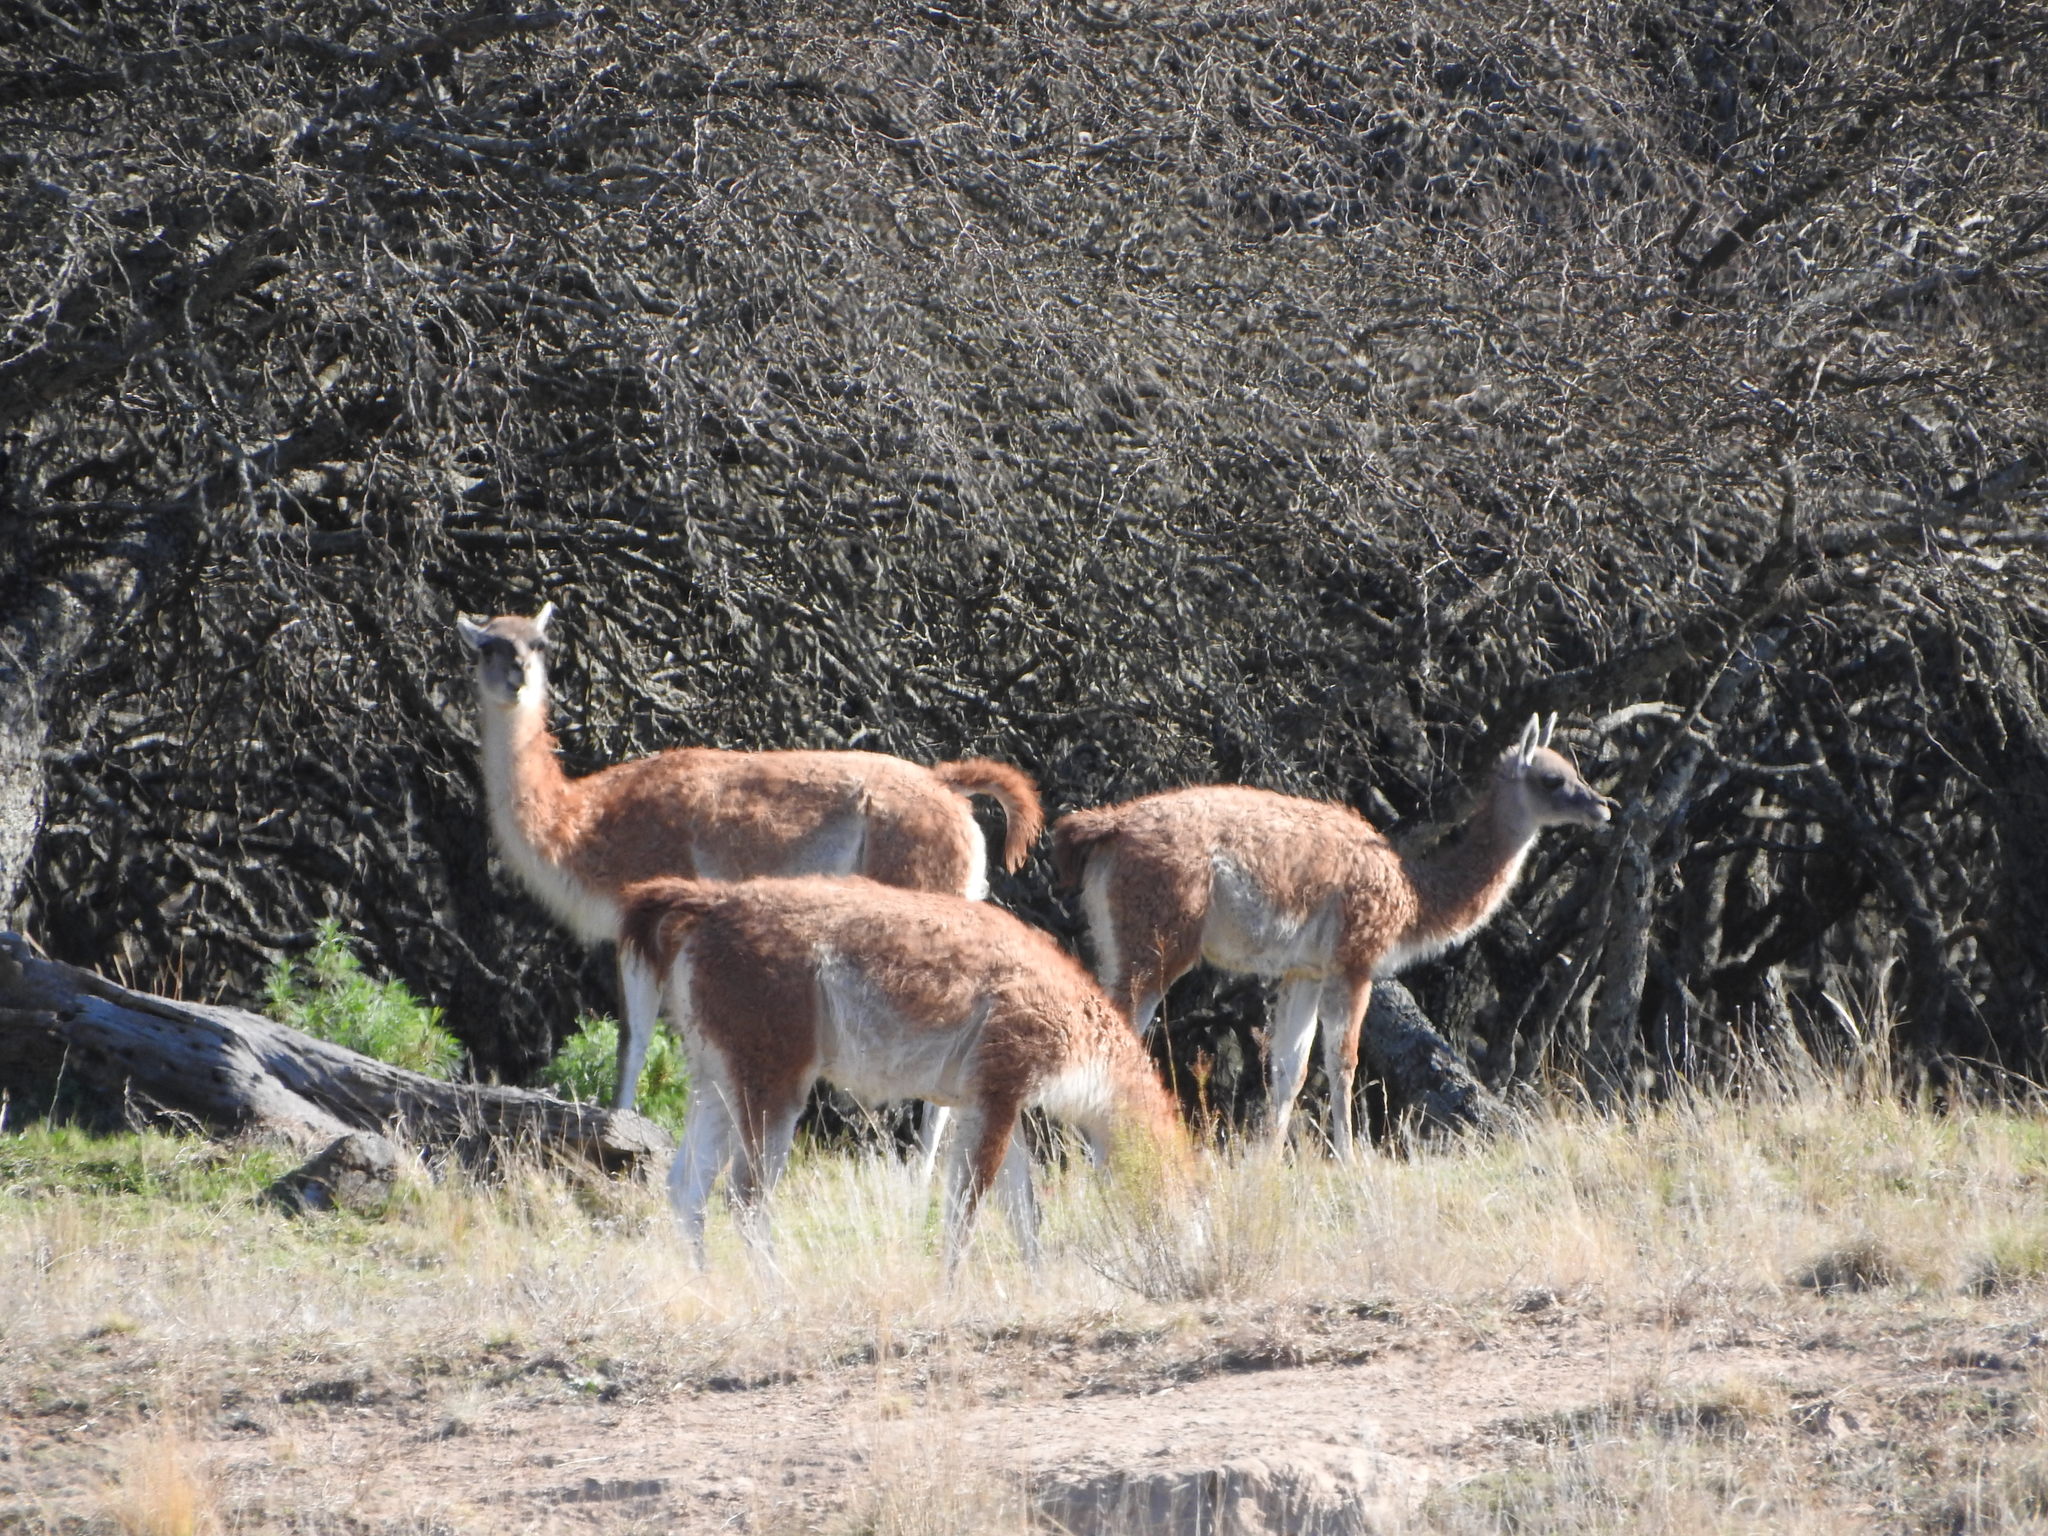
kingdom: Animalia
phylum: Chordata
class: Mammalia
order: Artiodactyla
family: Camelidae
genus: Lama
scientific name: Lama glama
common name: Llama
